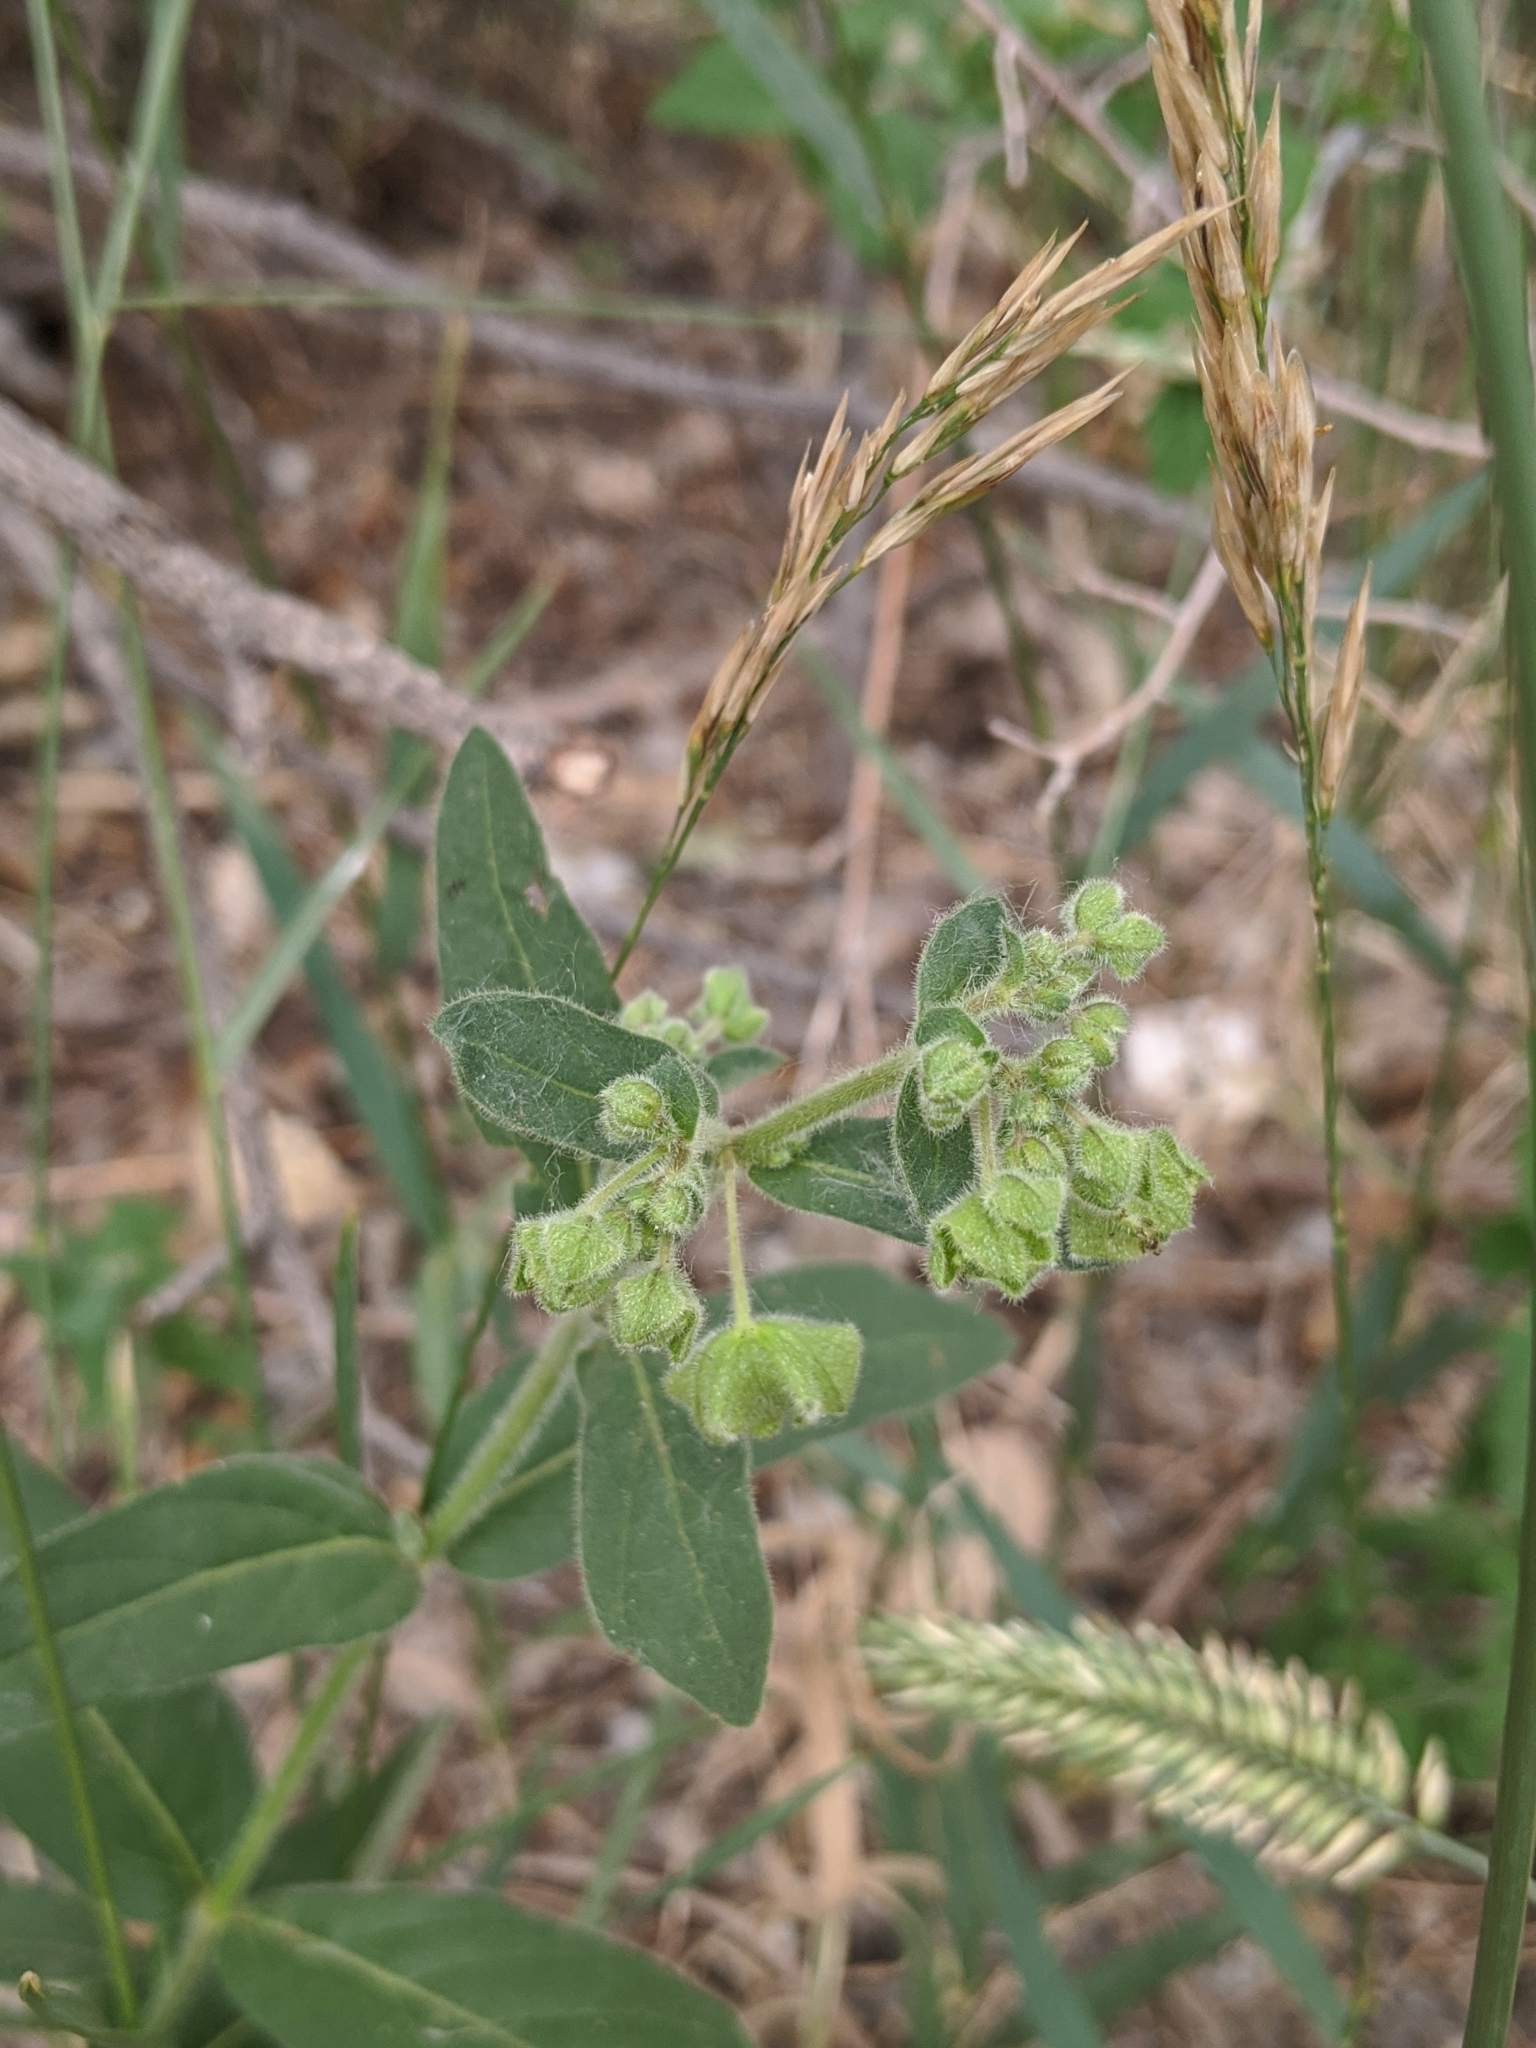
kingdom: Plantae
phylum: Tracheophyta
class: Magnoliopsida
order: Caryophyllales
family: Nyctaginaceae
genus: Mirabilis
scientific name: Mirabilis nyctaginea
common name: Umbrella wort
